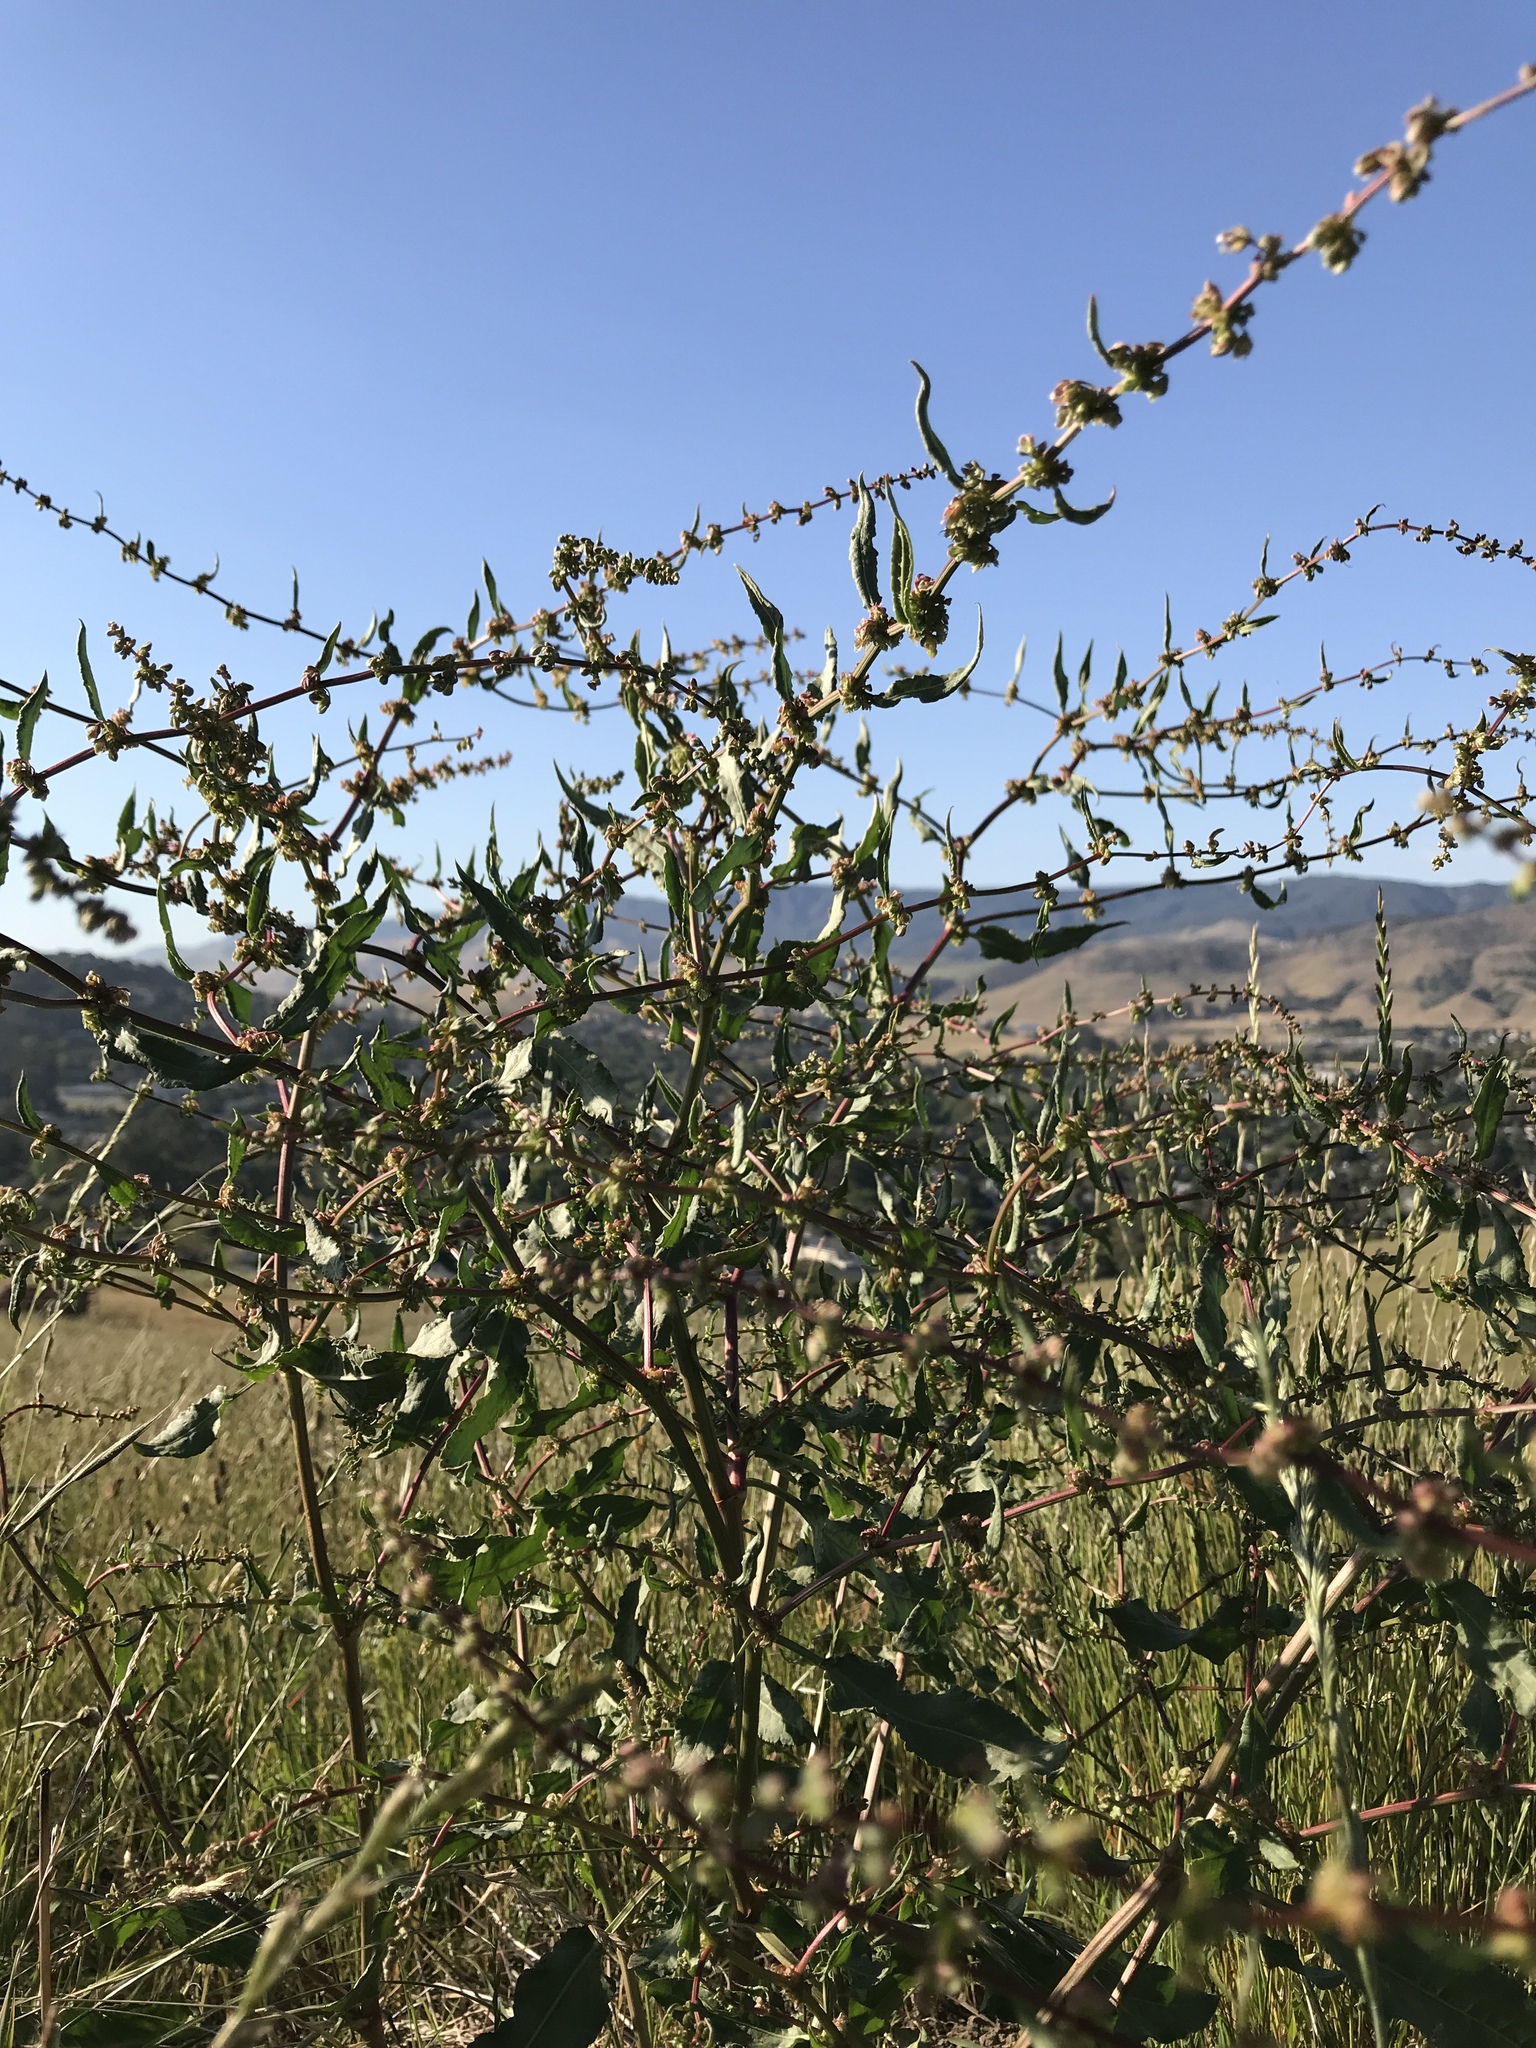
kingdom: Plantae
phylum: Tracheophyta
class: Magnoliopsida
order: Caryophyllales
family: Polygonaceae
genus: Rumex
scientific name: Rumex pulcher
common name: Fiddle dock
